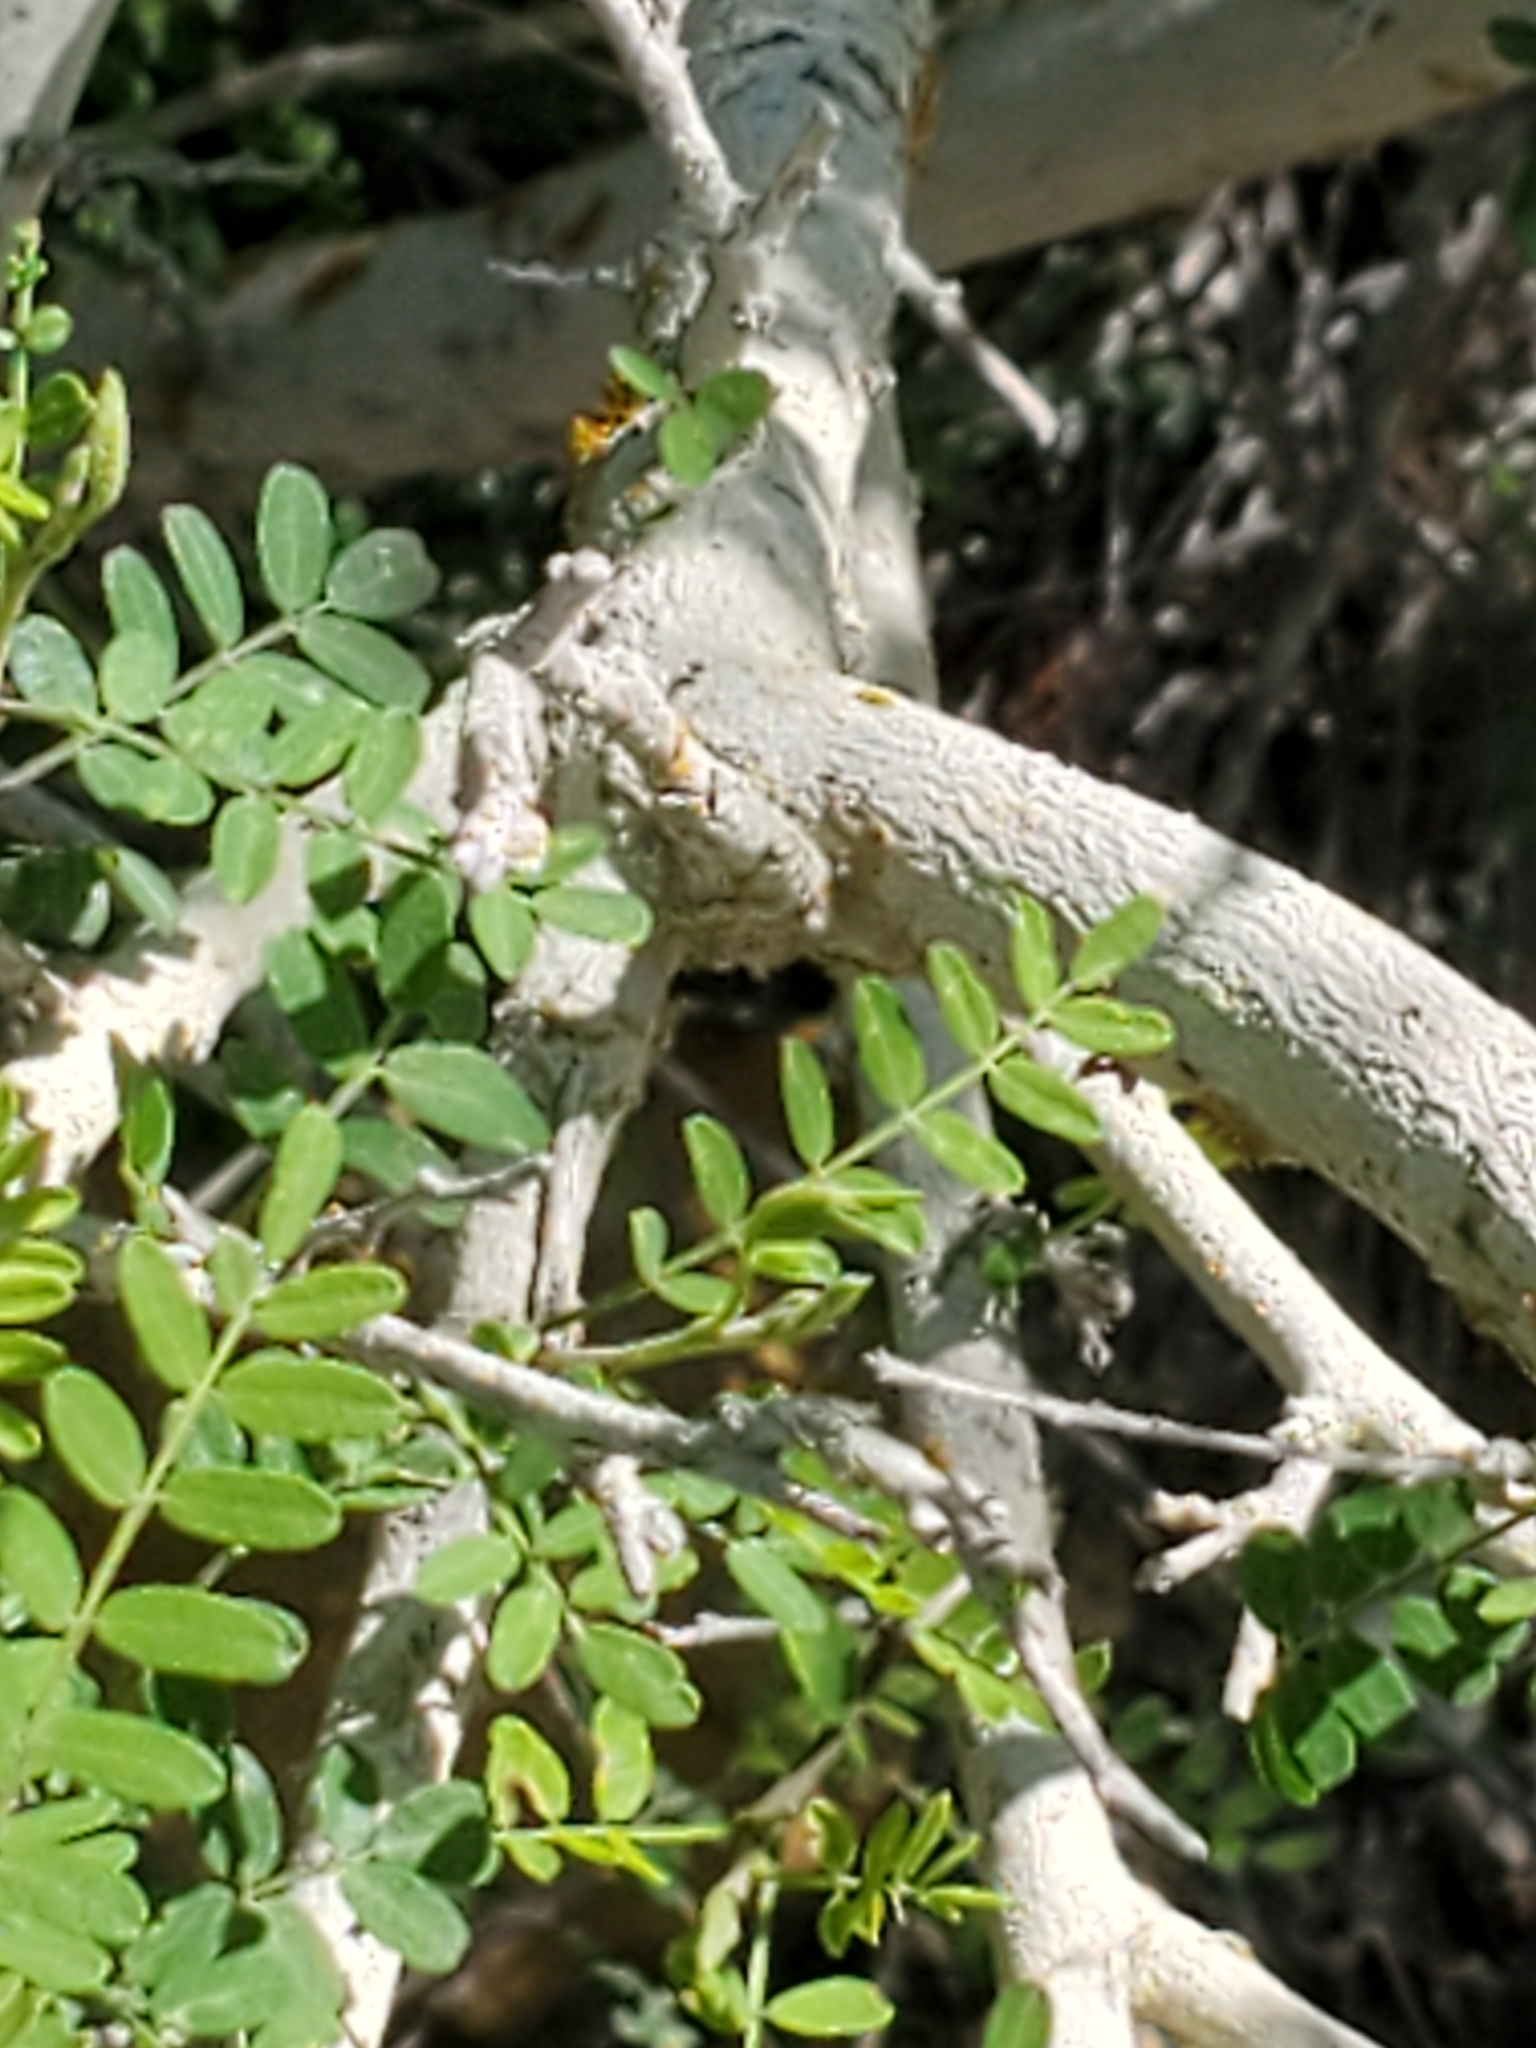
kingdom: Plantae
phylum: Tracheophyta
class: Magnoliopsida
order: Fabales
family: Fabaceae
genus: Eysenhardtia
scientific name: Eysenhardtia texana
